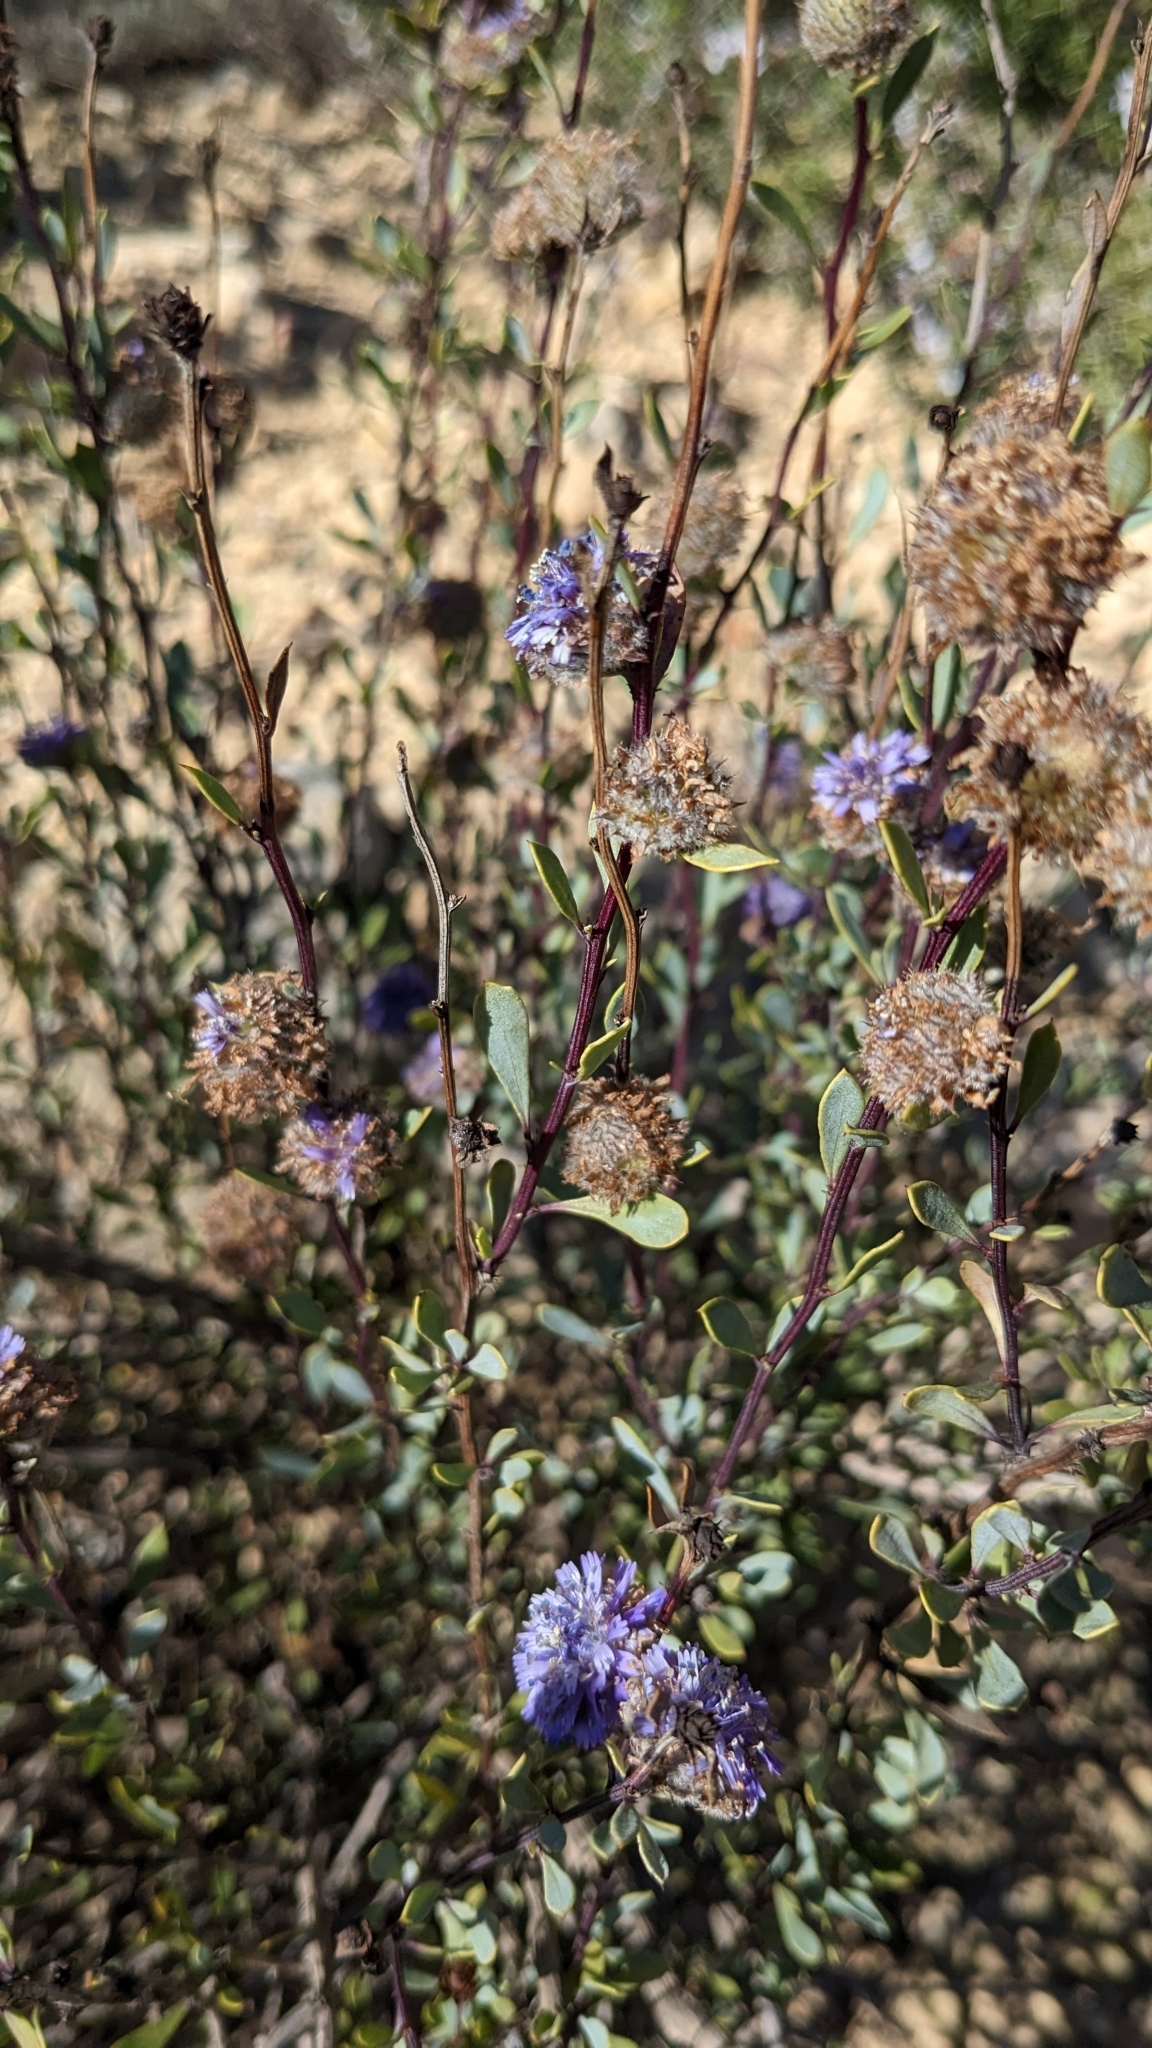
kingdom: Plantae
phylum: Tracheophyta
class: Magnoliopsida
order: Lamiales
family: Plantaginaceae
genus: Globularia
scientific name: Globularia alypum
